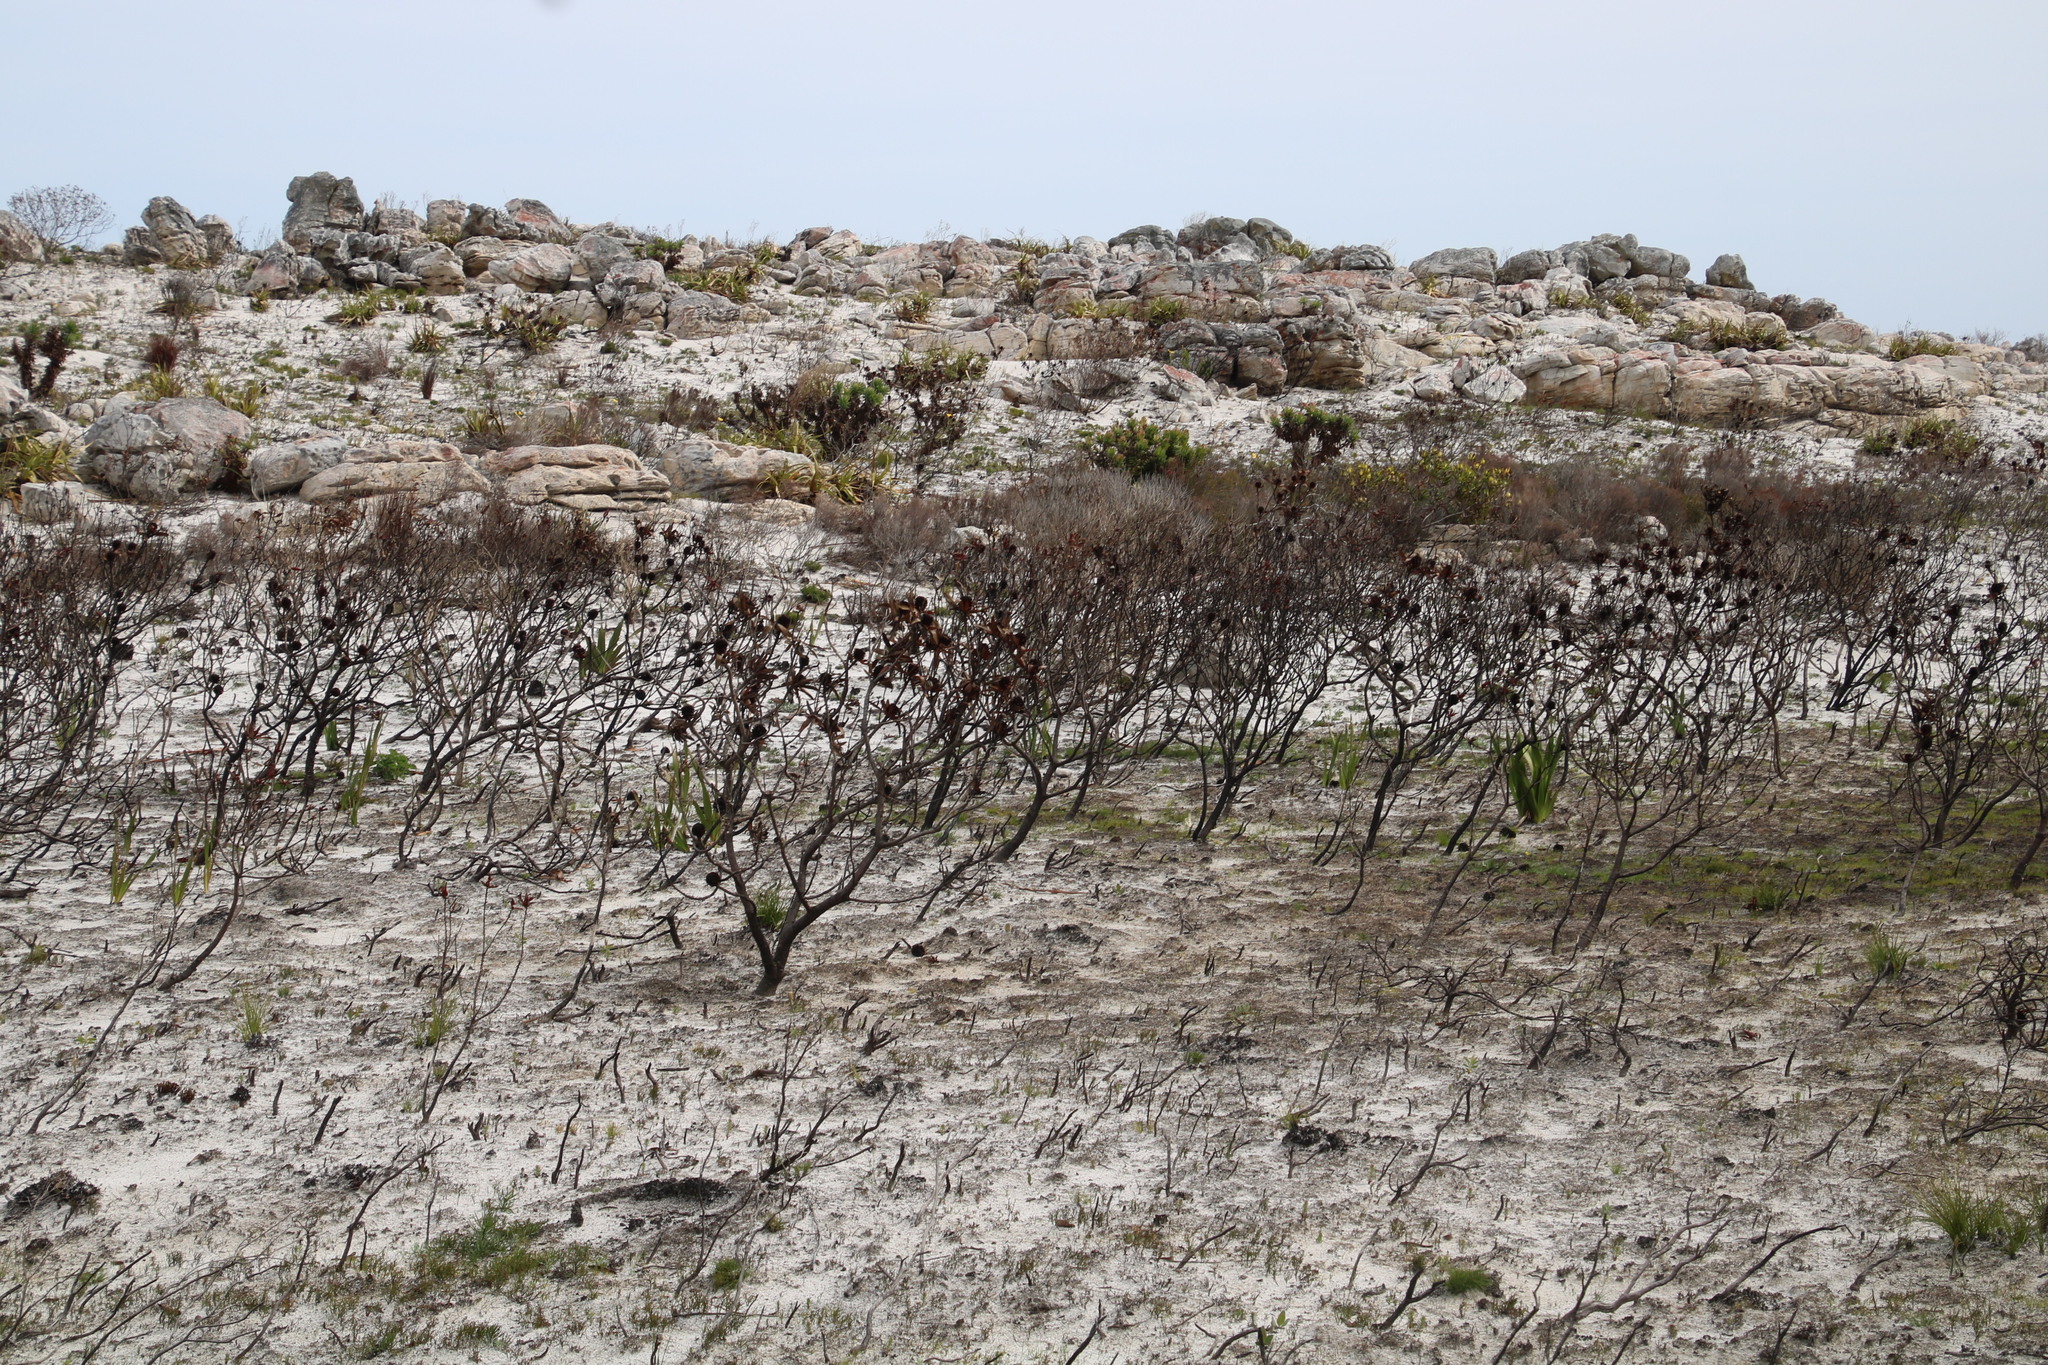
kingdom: Plantae
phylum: Tracheophyta
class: Magnoliopsida
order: Proteales
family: Proteaceae
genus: Leucadendron
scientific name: Leucadendron laureolum
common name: Golden sunshinebush
